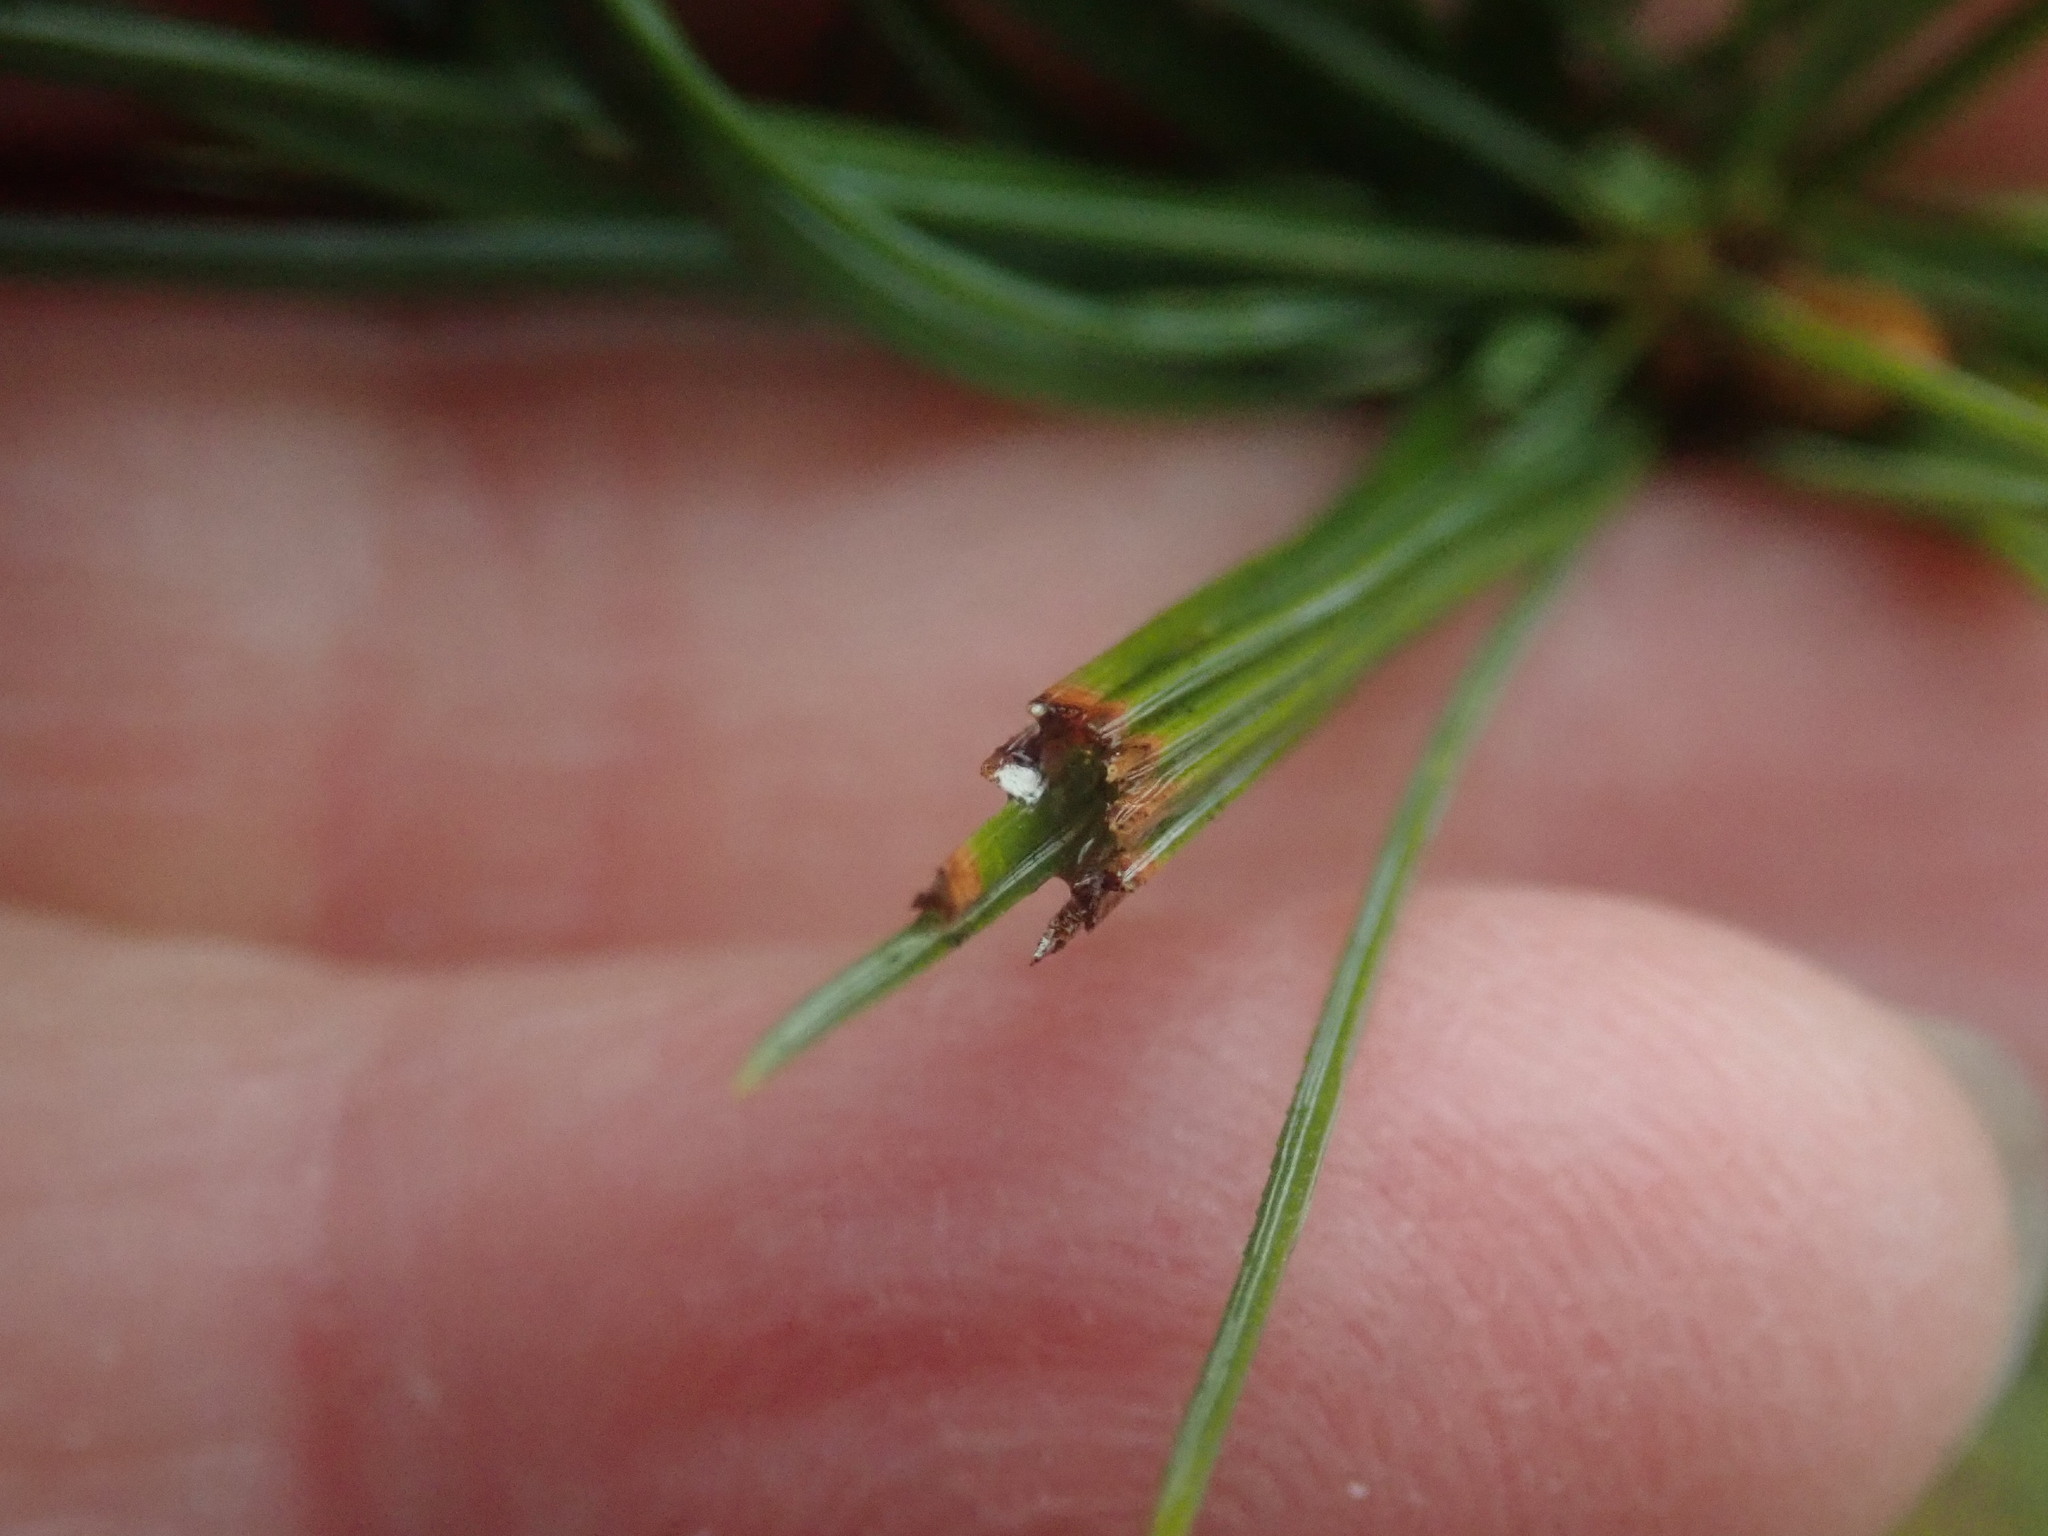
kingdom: Animalia
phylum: Arthropoda
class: Insecta
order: Lepidoptera
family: Tortricidae
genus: Argyrotaenia
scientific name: Argyrotaenia pinatubana
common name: Pine tube moth
